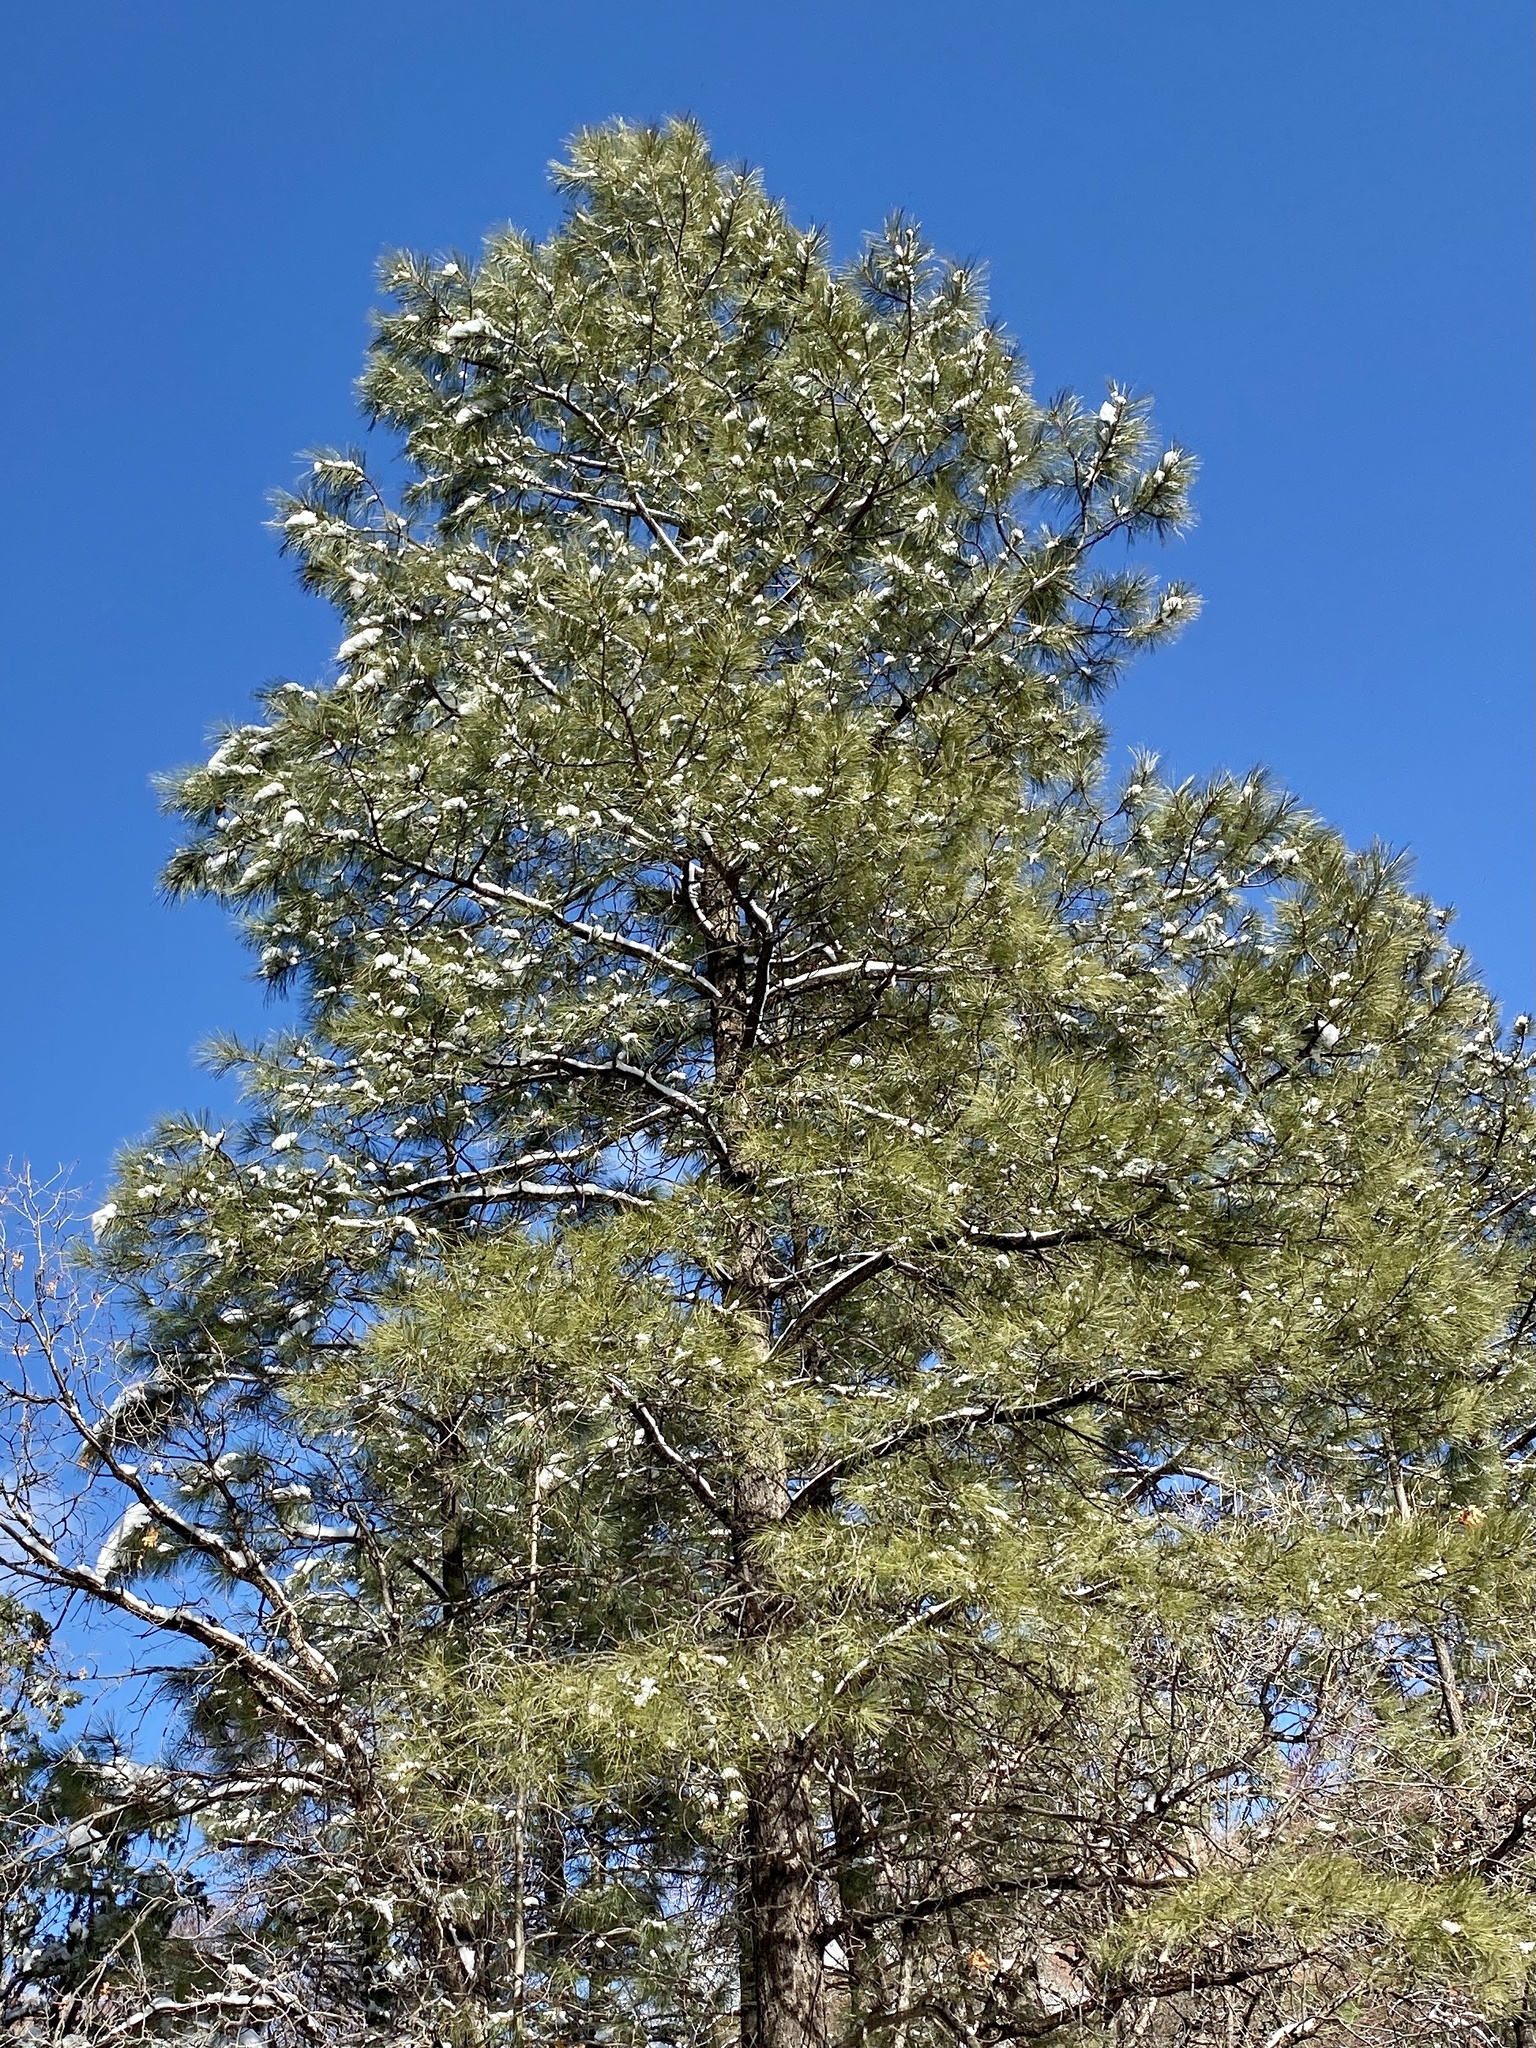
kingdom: Plantae
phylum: Tracheophyta
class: Pinopsida
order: Pinales
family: Pinaceae
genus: Pinus
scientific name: Pinus ponderosa
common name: Western yellow-pine
